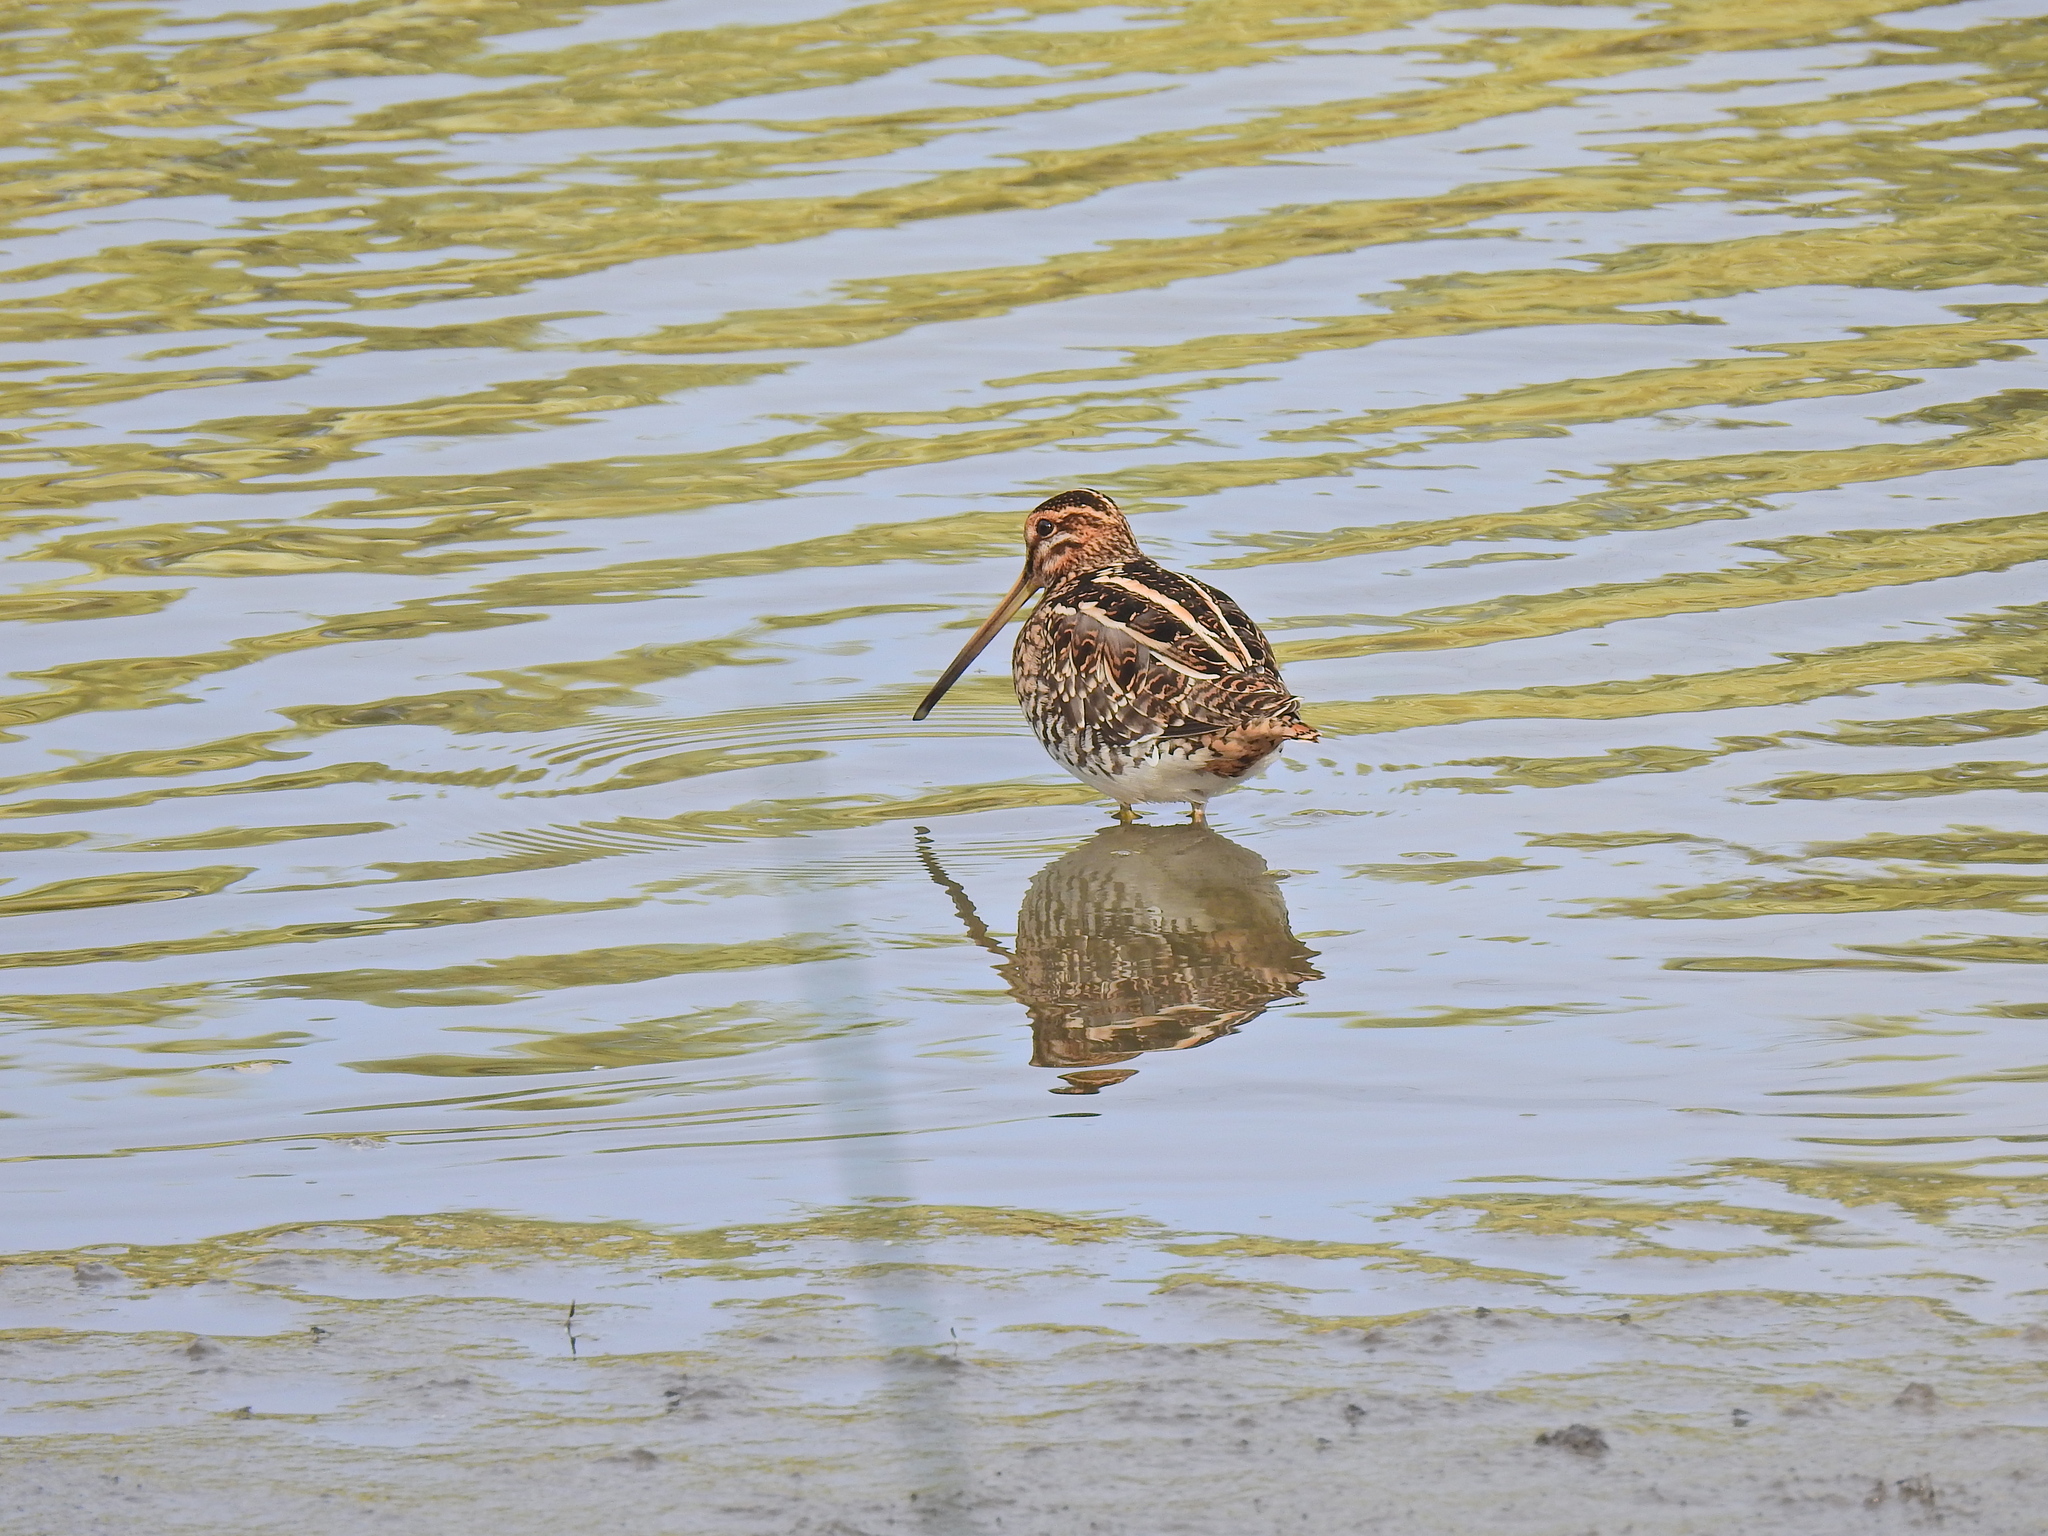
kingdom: Animalia
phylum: Chordata
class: Aves
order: Charadriiformes
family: Scolopacidae
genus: Gallinago
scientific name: Gallinago gallinago
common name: Common snipe
